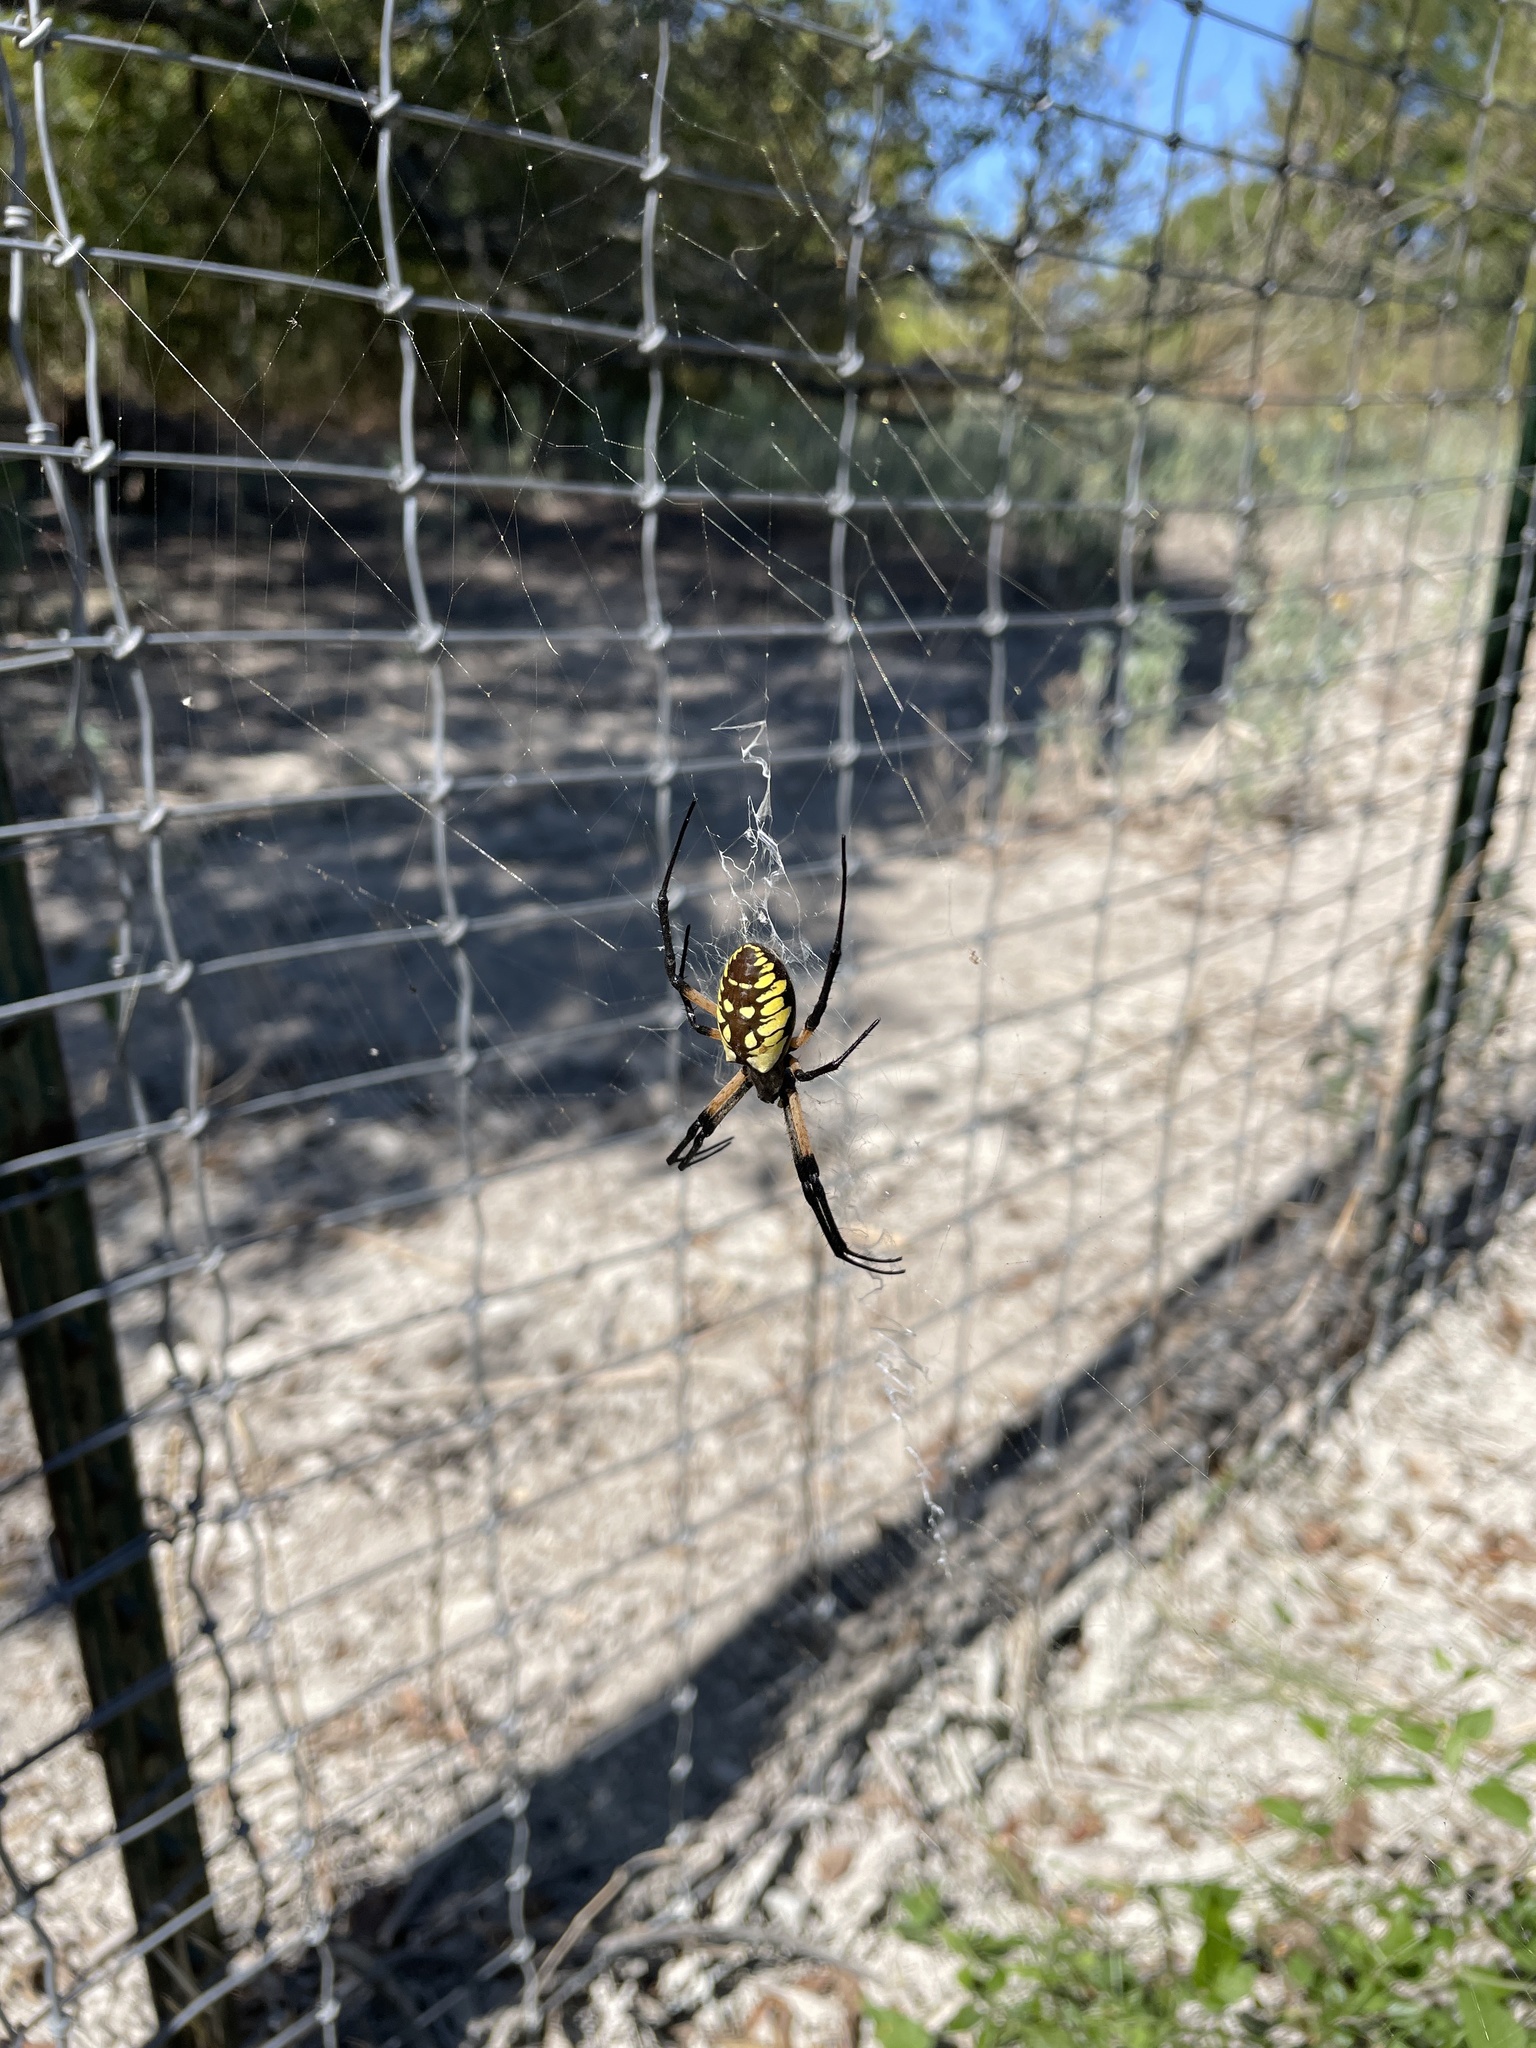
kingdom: Animalia
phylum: Arthropoda
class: Arachnida
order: Araneae
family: Araneidae
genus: Argiope
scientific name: Argiope aurantia
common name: Orb weavers
